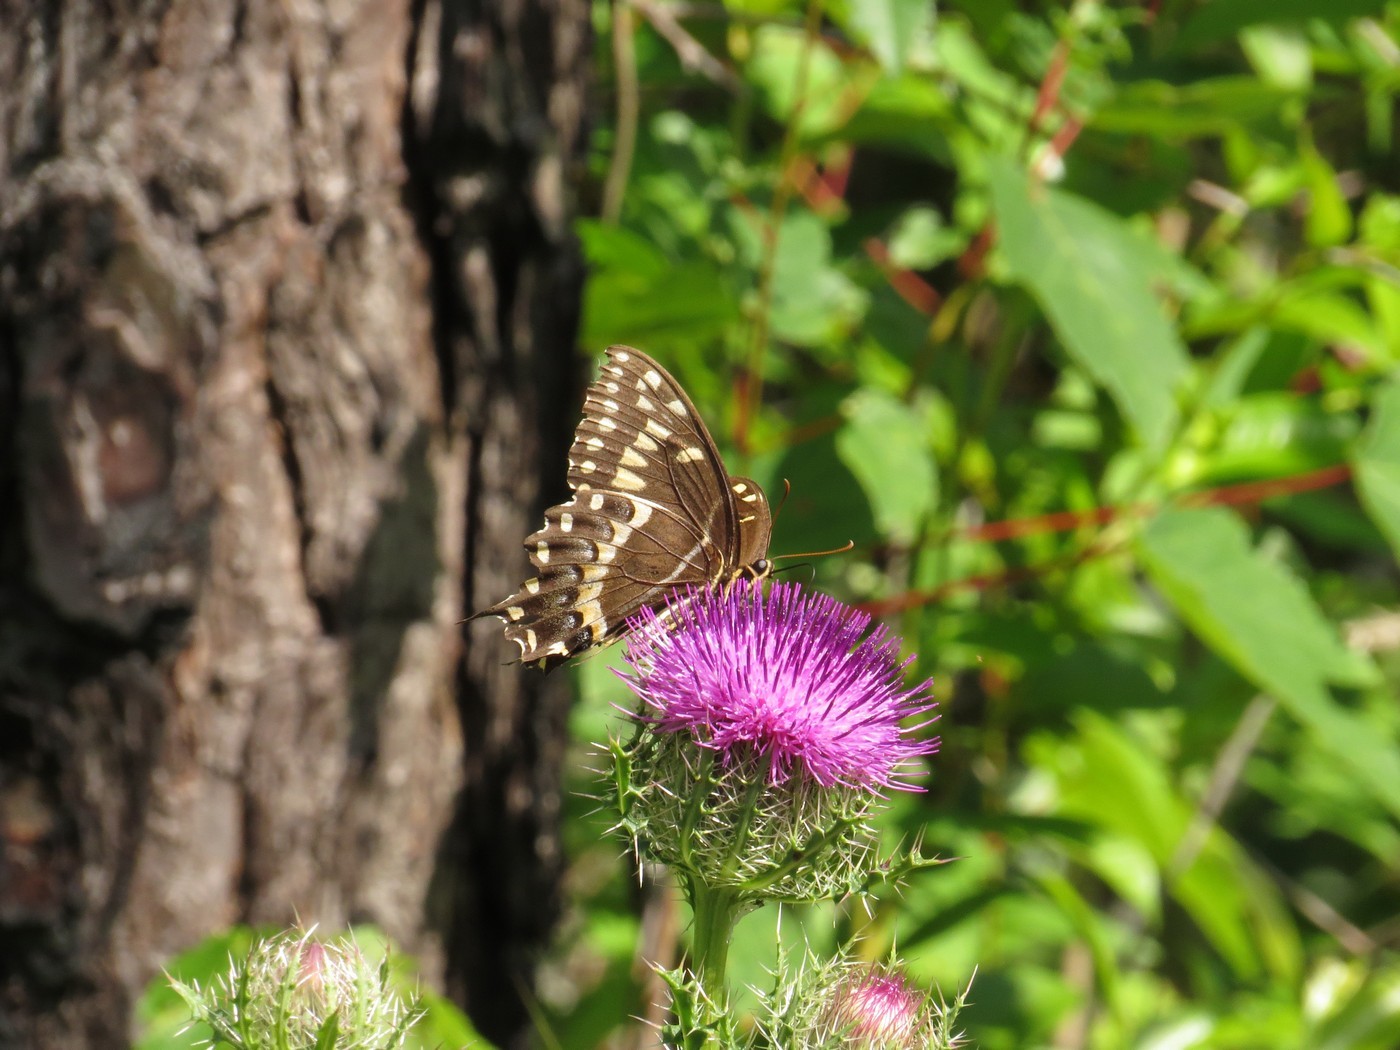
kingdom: Animalia
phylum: Arthropoda
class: Insecta
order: Lepidoptera
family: Papilionidae
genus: Papilio
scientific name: Papilio palamedes
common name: Palamedes swallowtail
